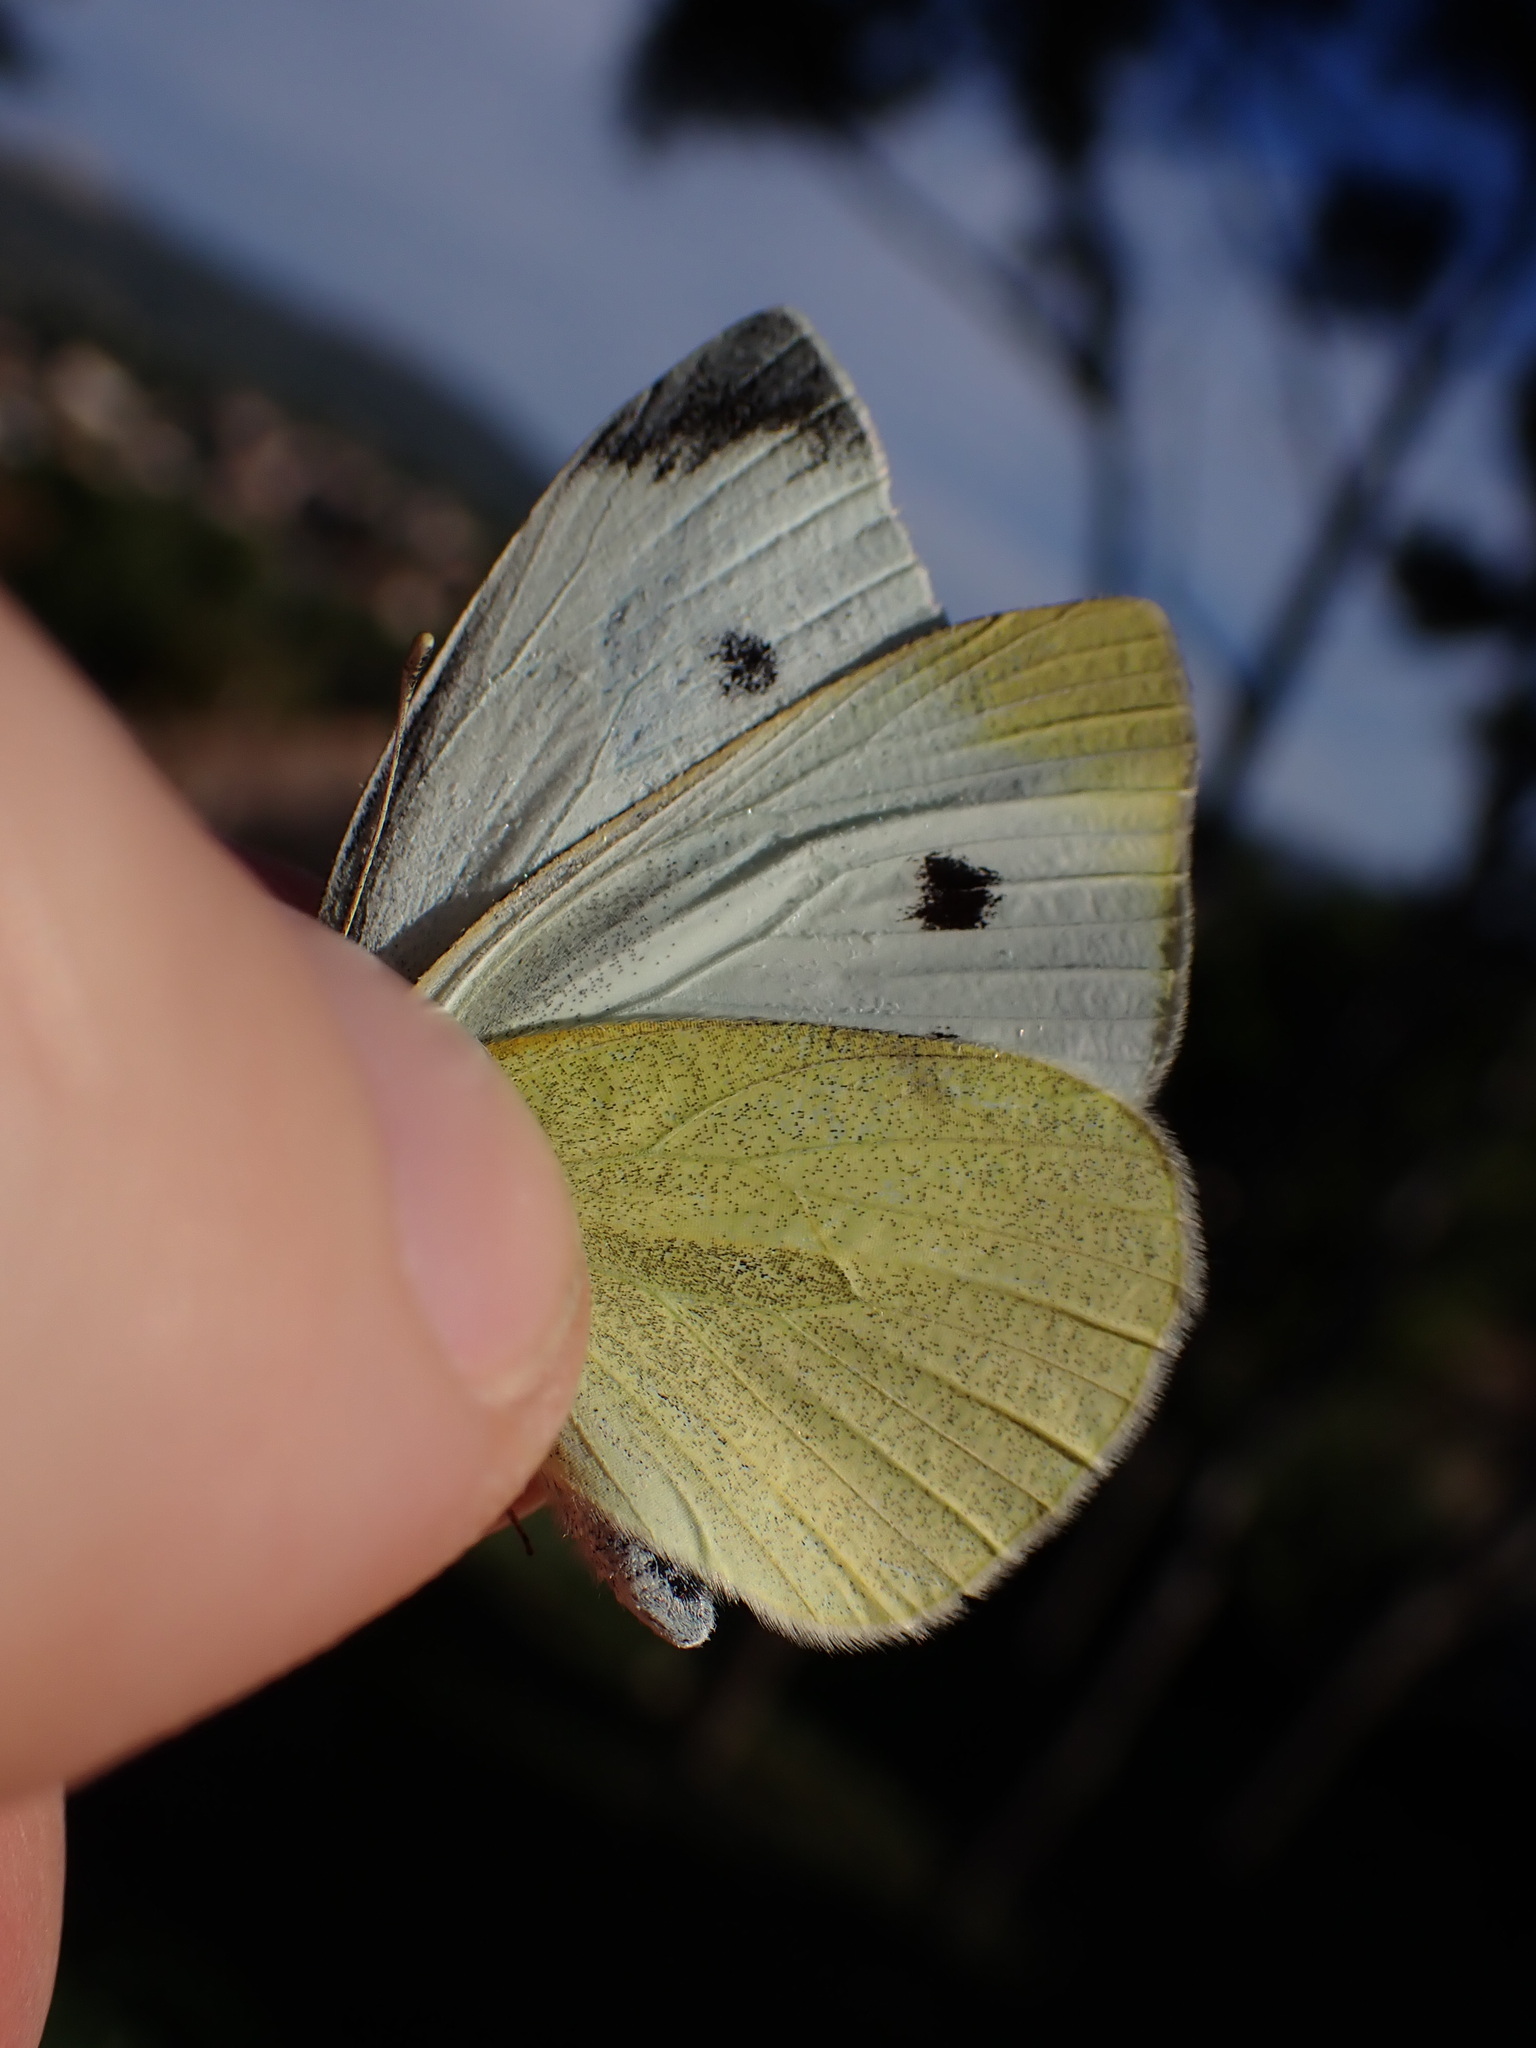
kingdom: Animalia
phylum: Arthropoda
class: Insecta
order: Lepidoptera
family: Pieridae
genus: Pieris
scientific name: Pieris rapae
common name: Small white
